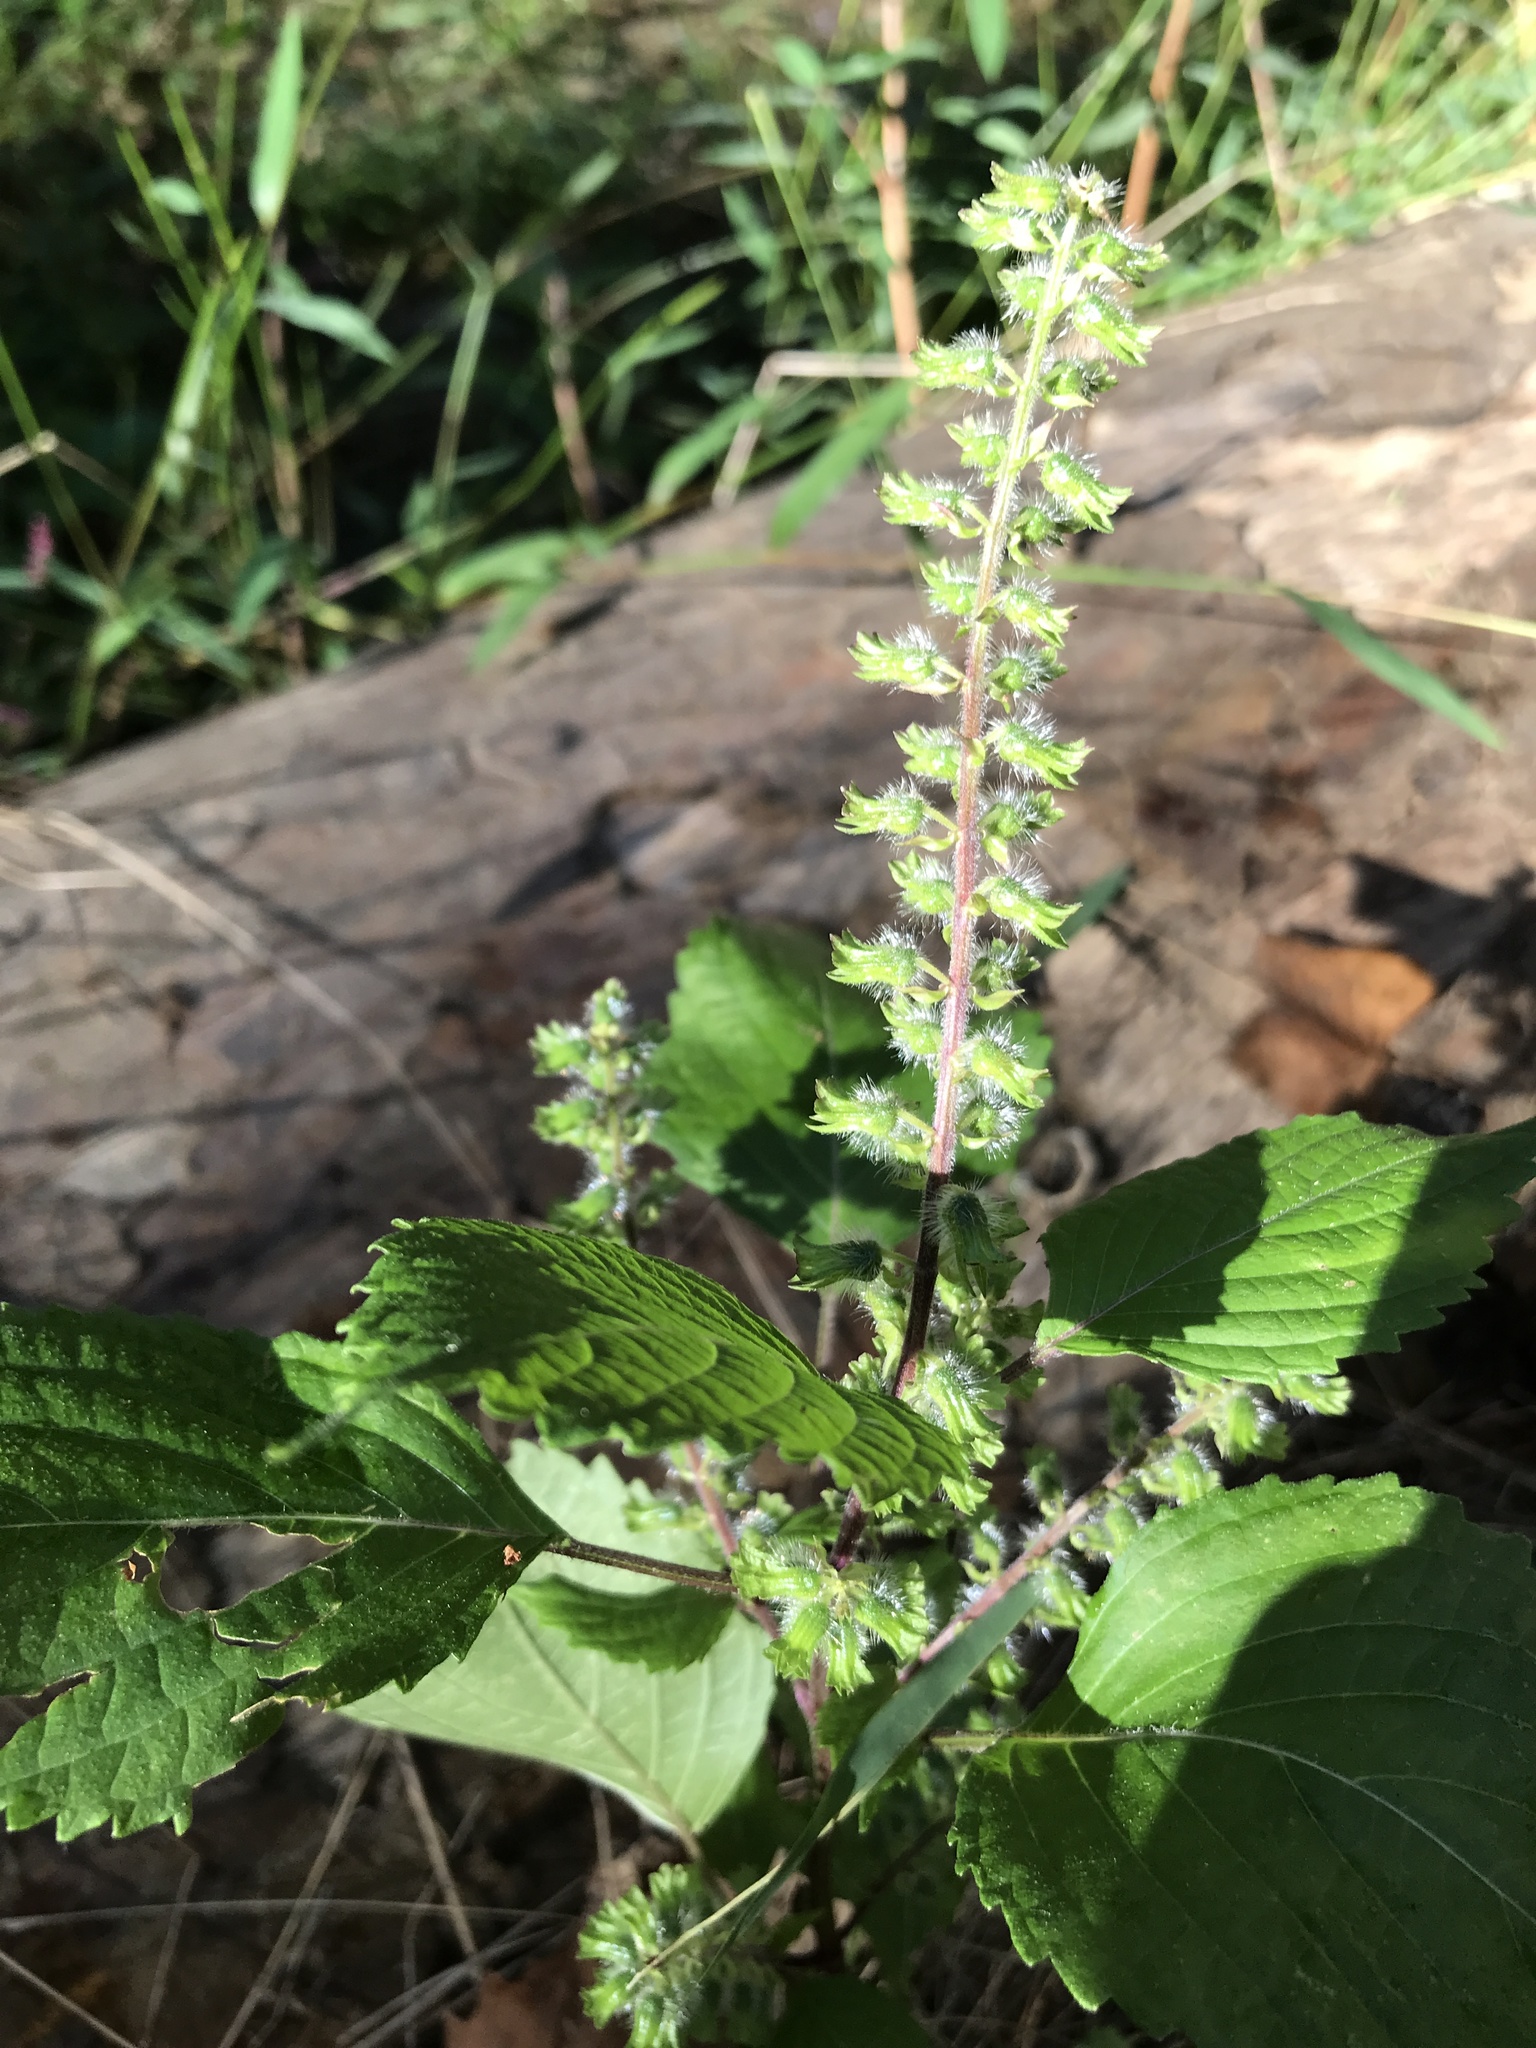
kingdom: Plantae
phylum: Tracheophyta
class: Magnoliopsida
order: Lamiales
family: Lamiaceae
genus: Perilla
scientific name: Perilla frutescens
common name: Perilla
